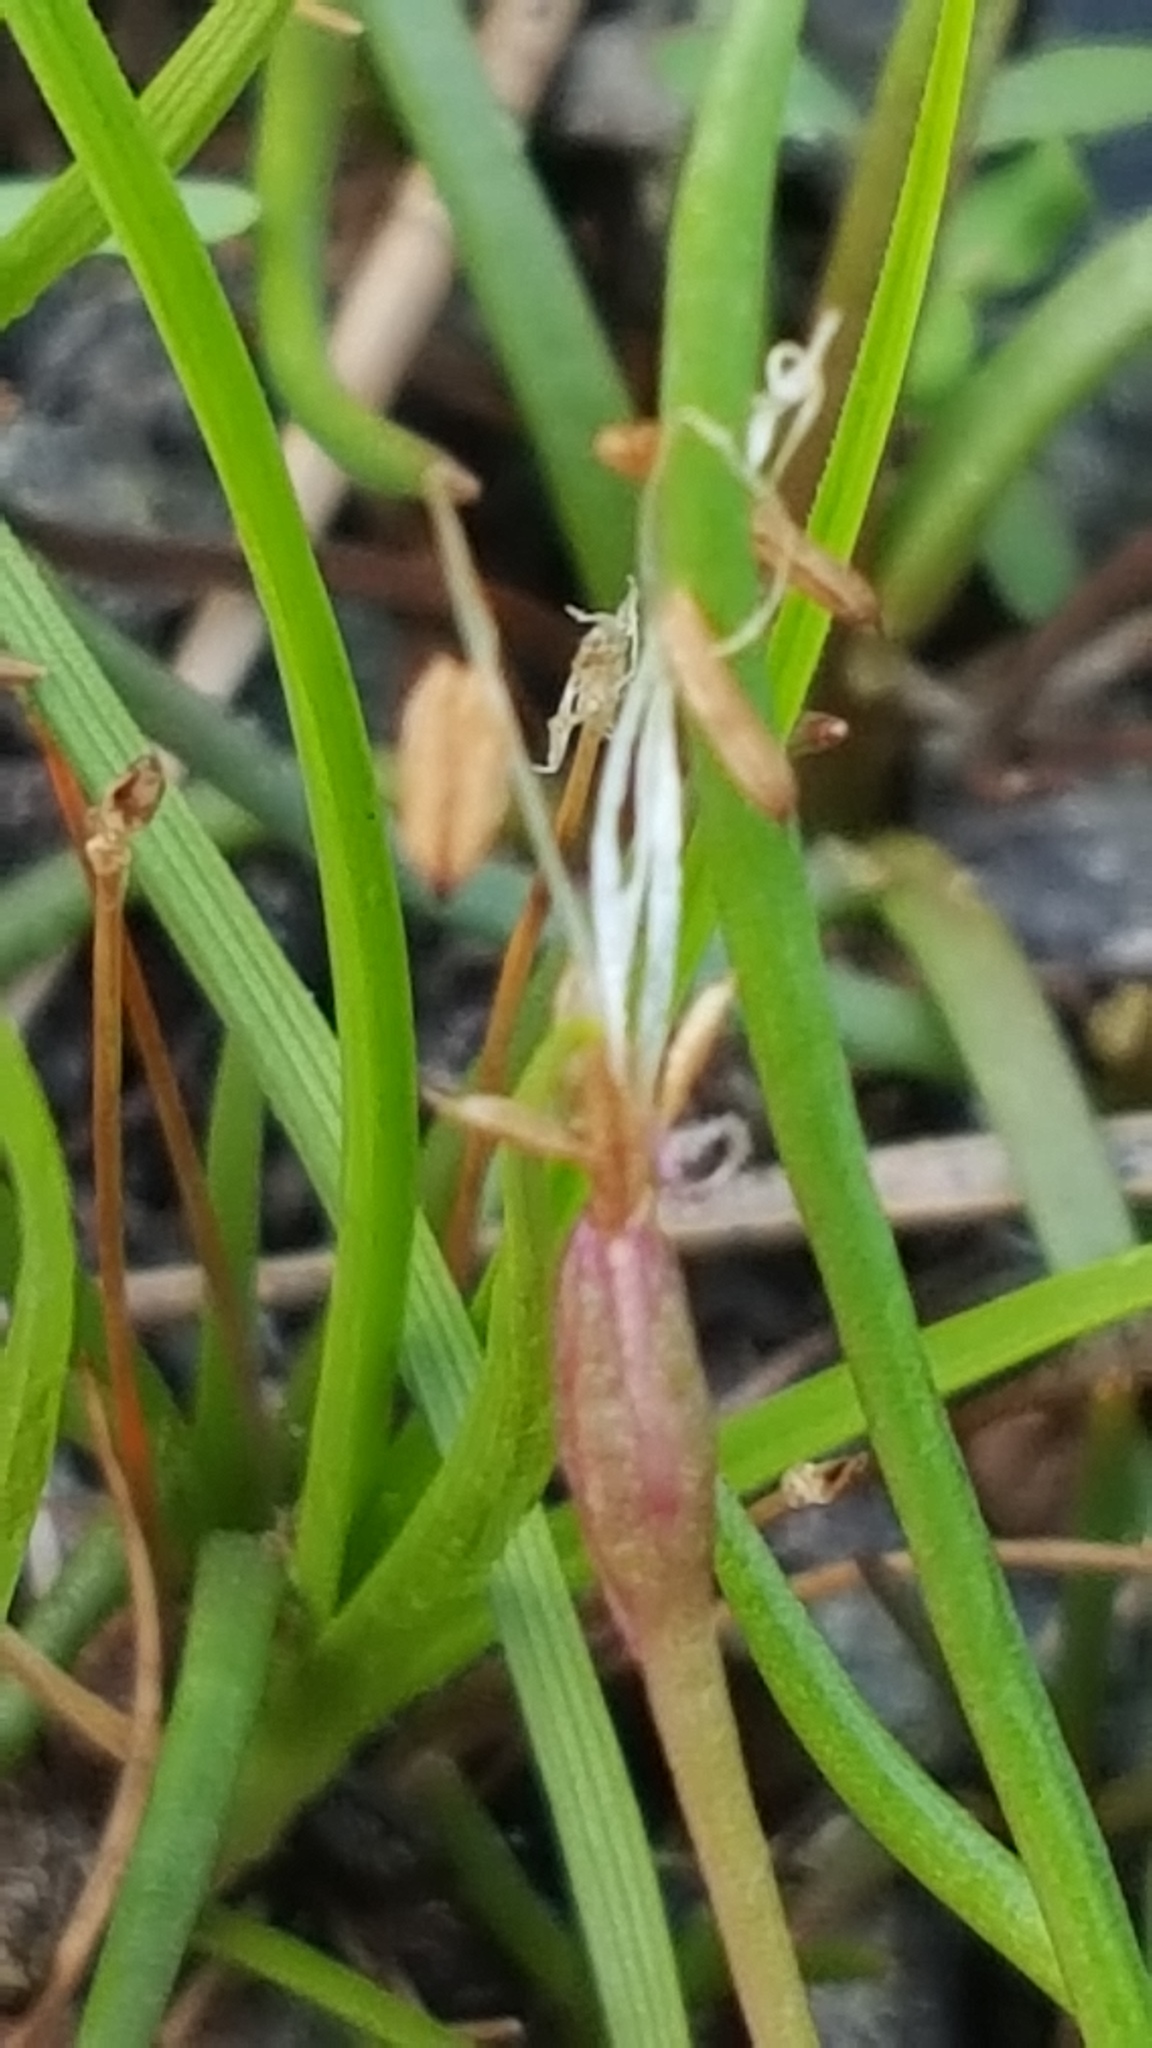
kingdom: Plantae
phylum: Tracheophyta
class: Magnoliopsida
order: Lamiales
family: Plantaginaceae
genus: Littorella
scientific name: Littorella americana
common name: American littorella
